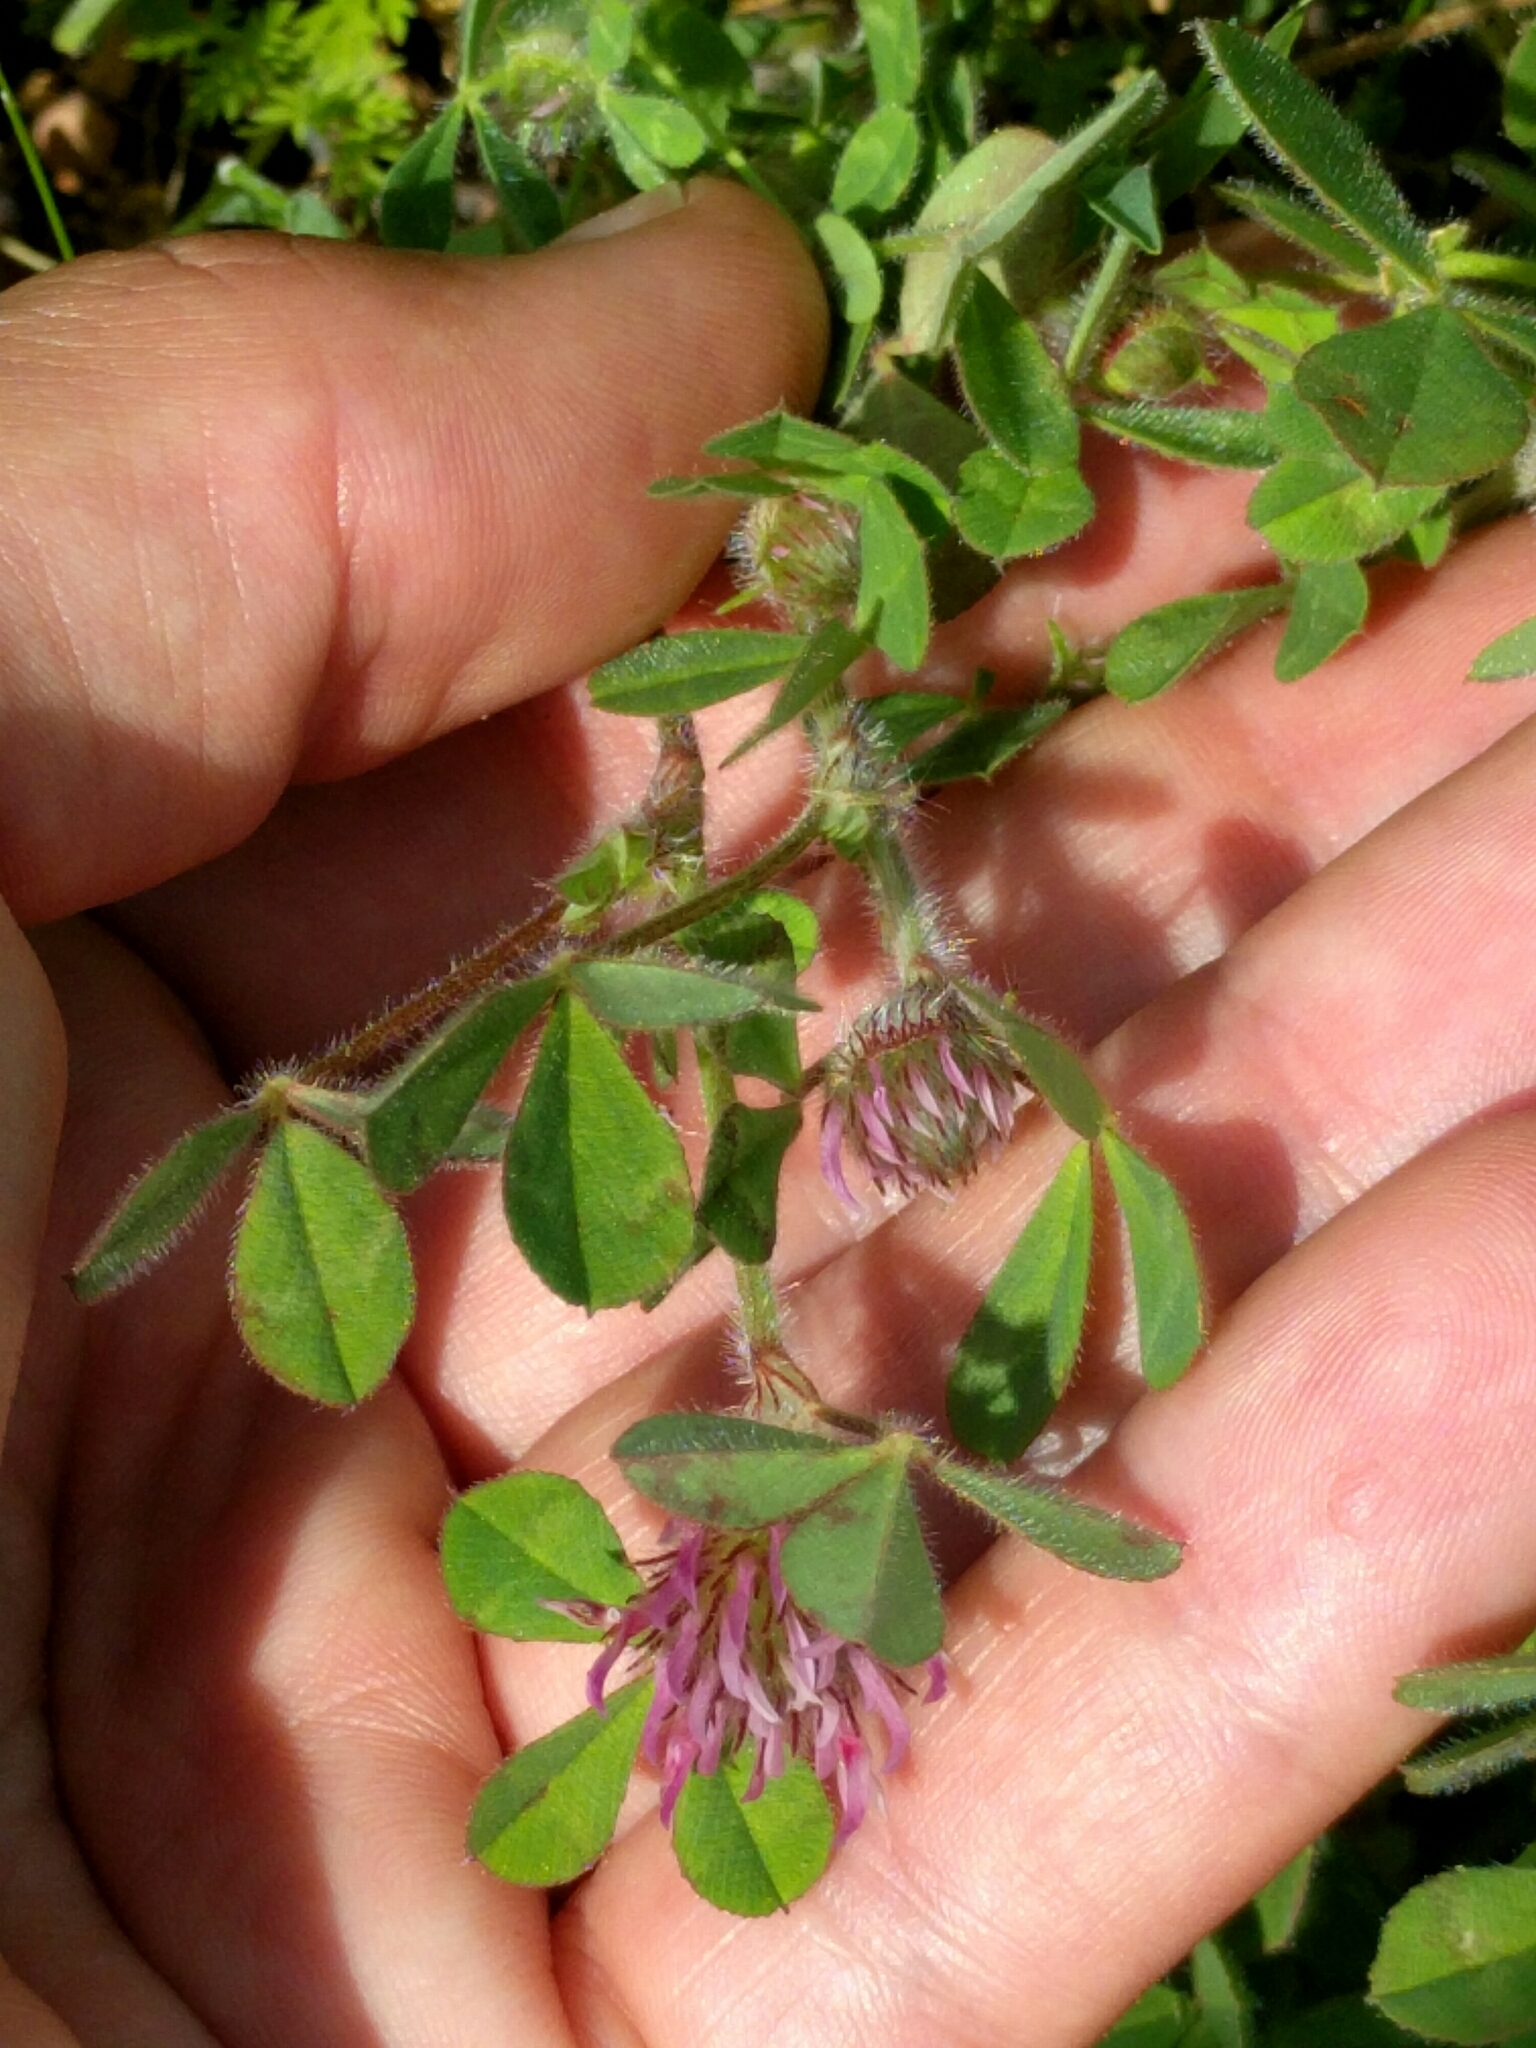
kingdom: Plantae
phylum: Tracheophyta
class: Magnoliopsida
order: Fabales
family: Fabaceae
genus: Trifolium
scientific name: Trifolium hirtum
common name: Rose clover
